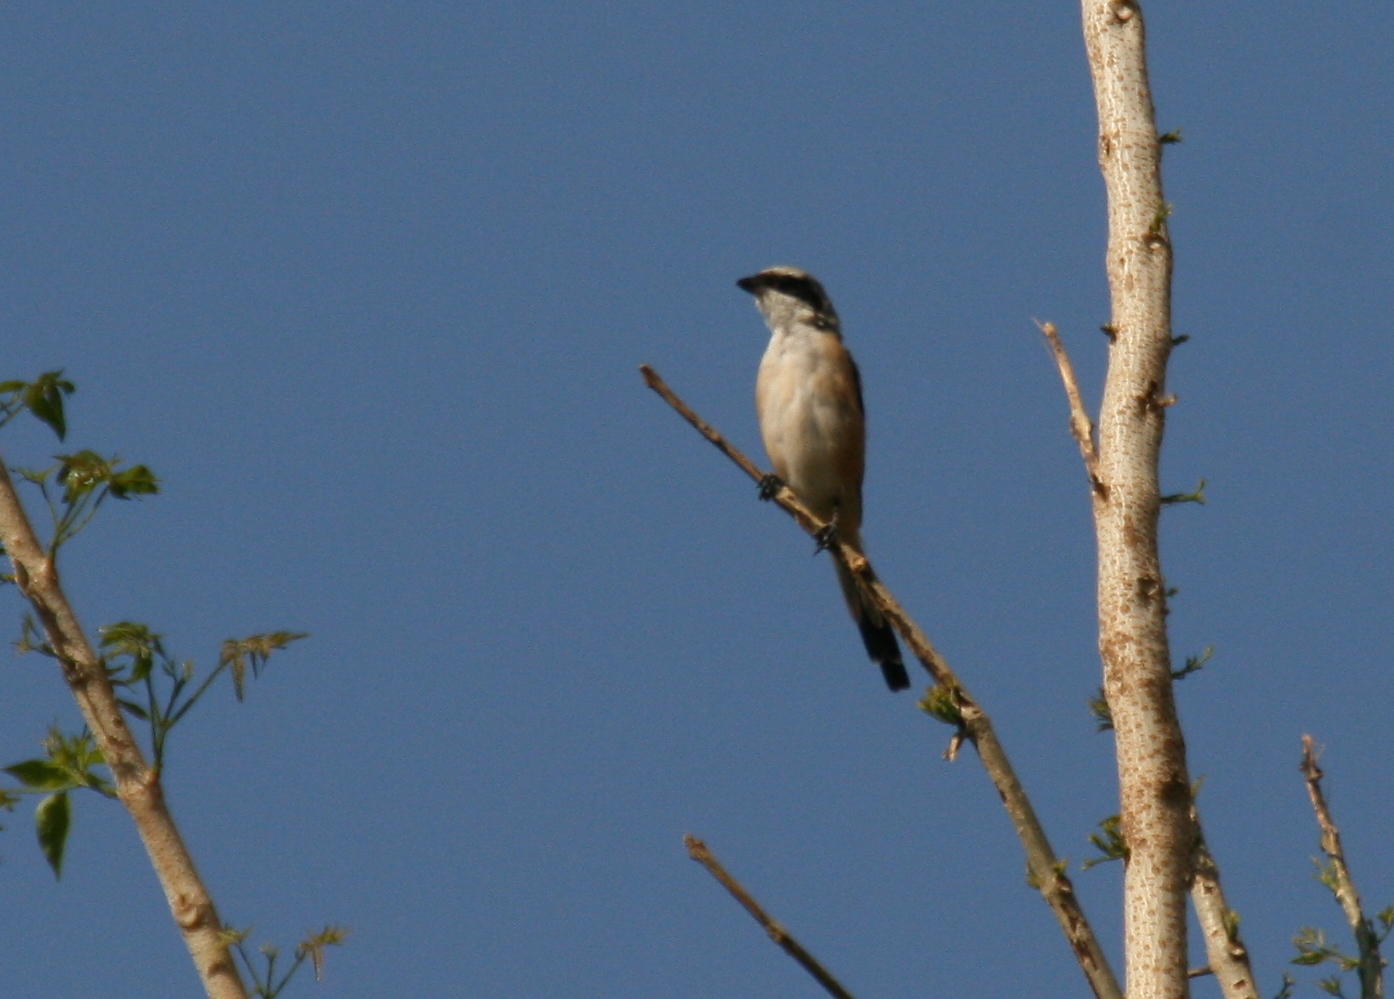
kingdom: Animalia
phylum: Chordata
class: Aves
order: Passeriformes
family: Laniidae
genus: Lanius
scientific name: Lanius schach
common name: Long-tailed shrike
